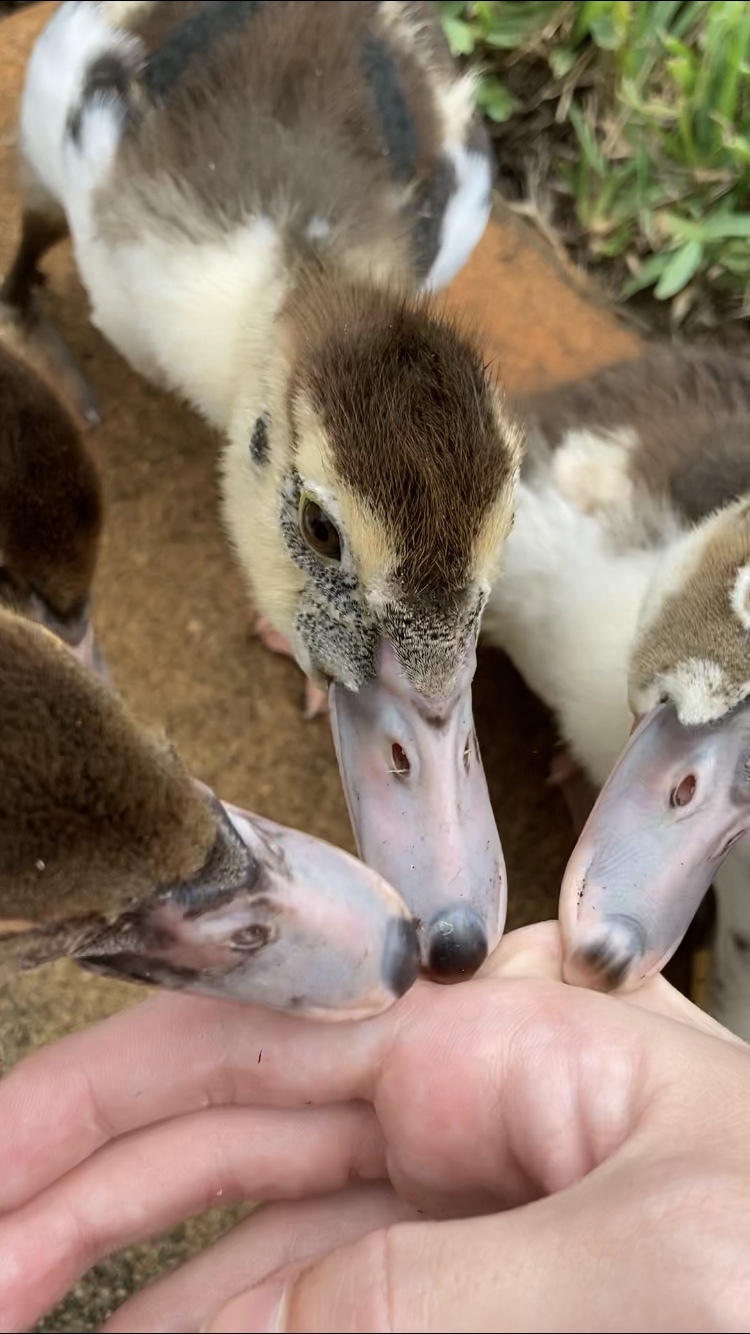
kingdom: Animalia
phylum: Chordata
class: Aves
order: Anseriformes
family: Anatidae
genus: Cairina
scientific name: Cairina moschata
